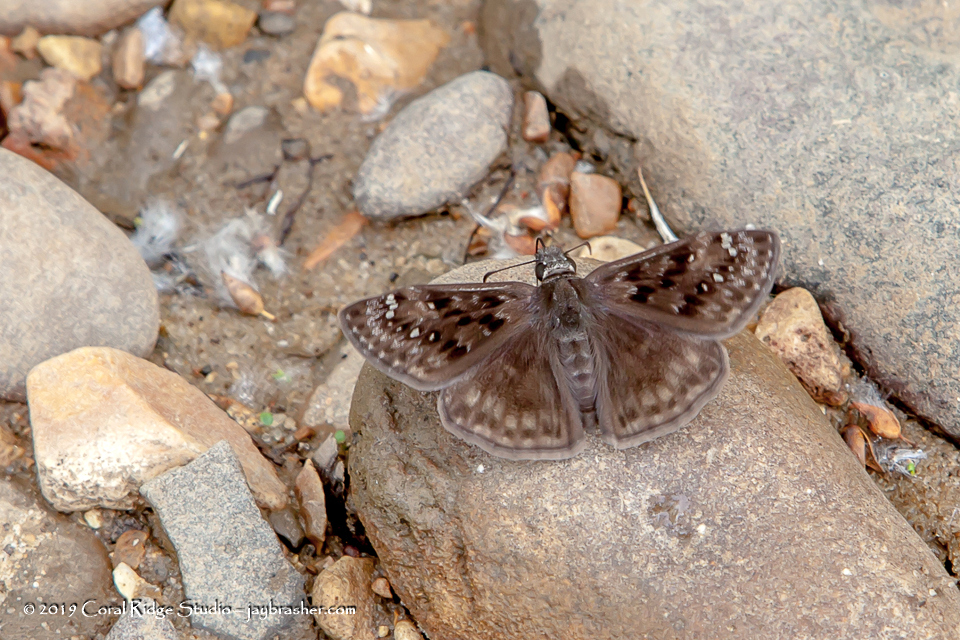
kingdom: Animalia
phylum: Arthropoda
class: Insecta
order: Lepidoptera
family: Hesperiidae
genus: Erynnis
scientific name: Erynnis horatius
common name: Horace's duskywing
